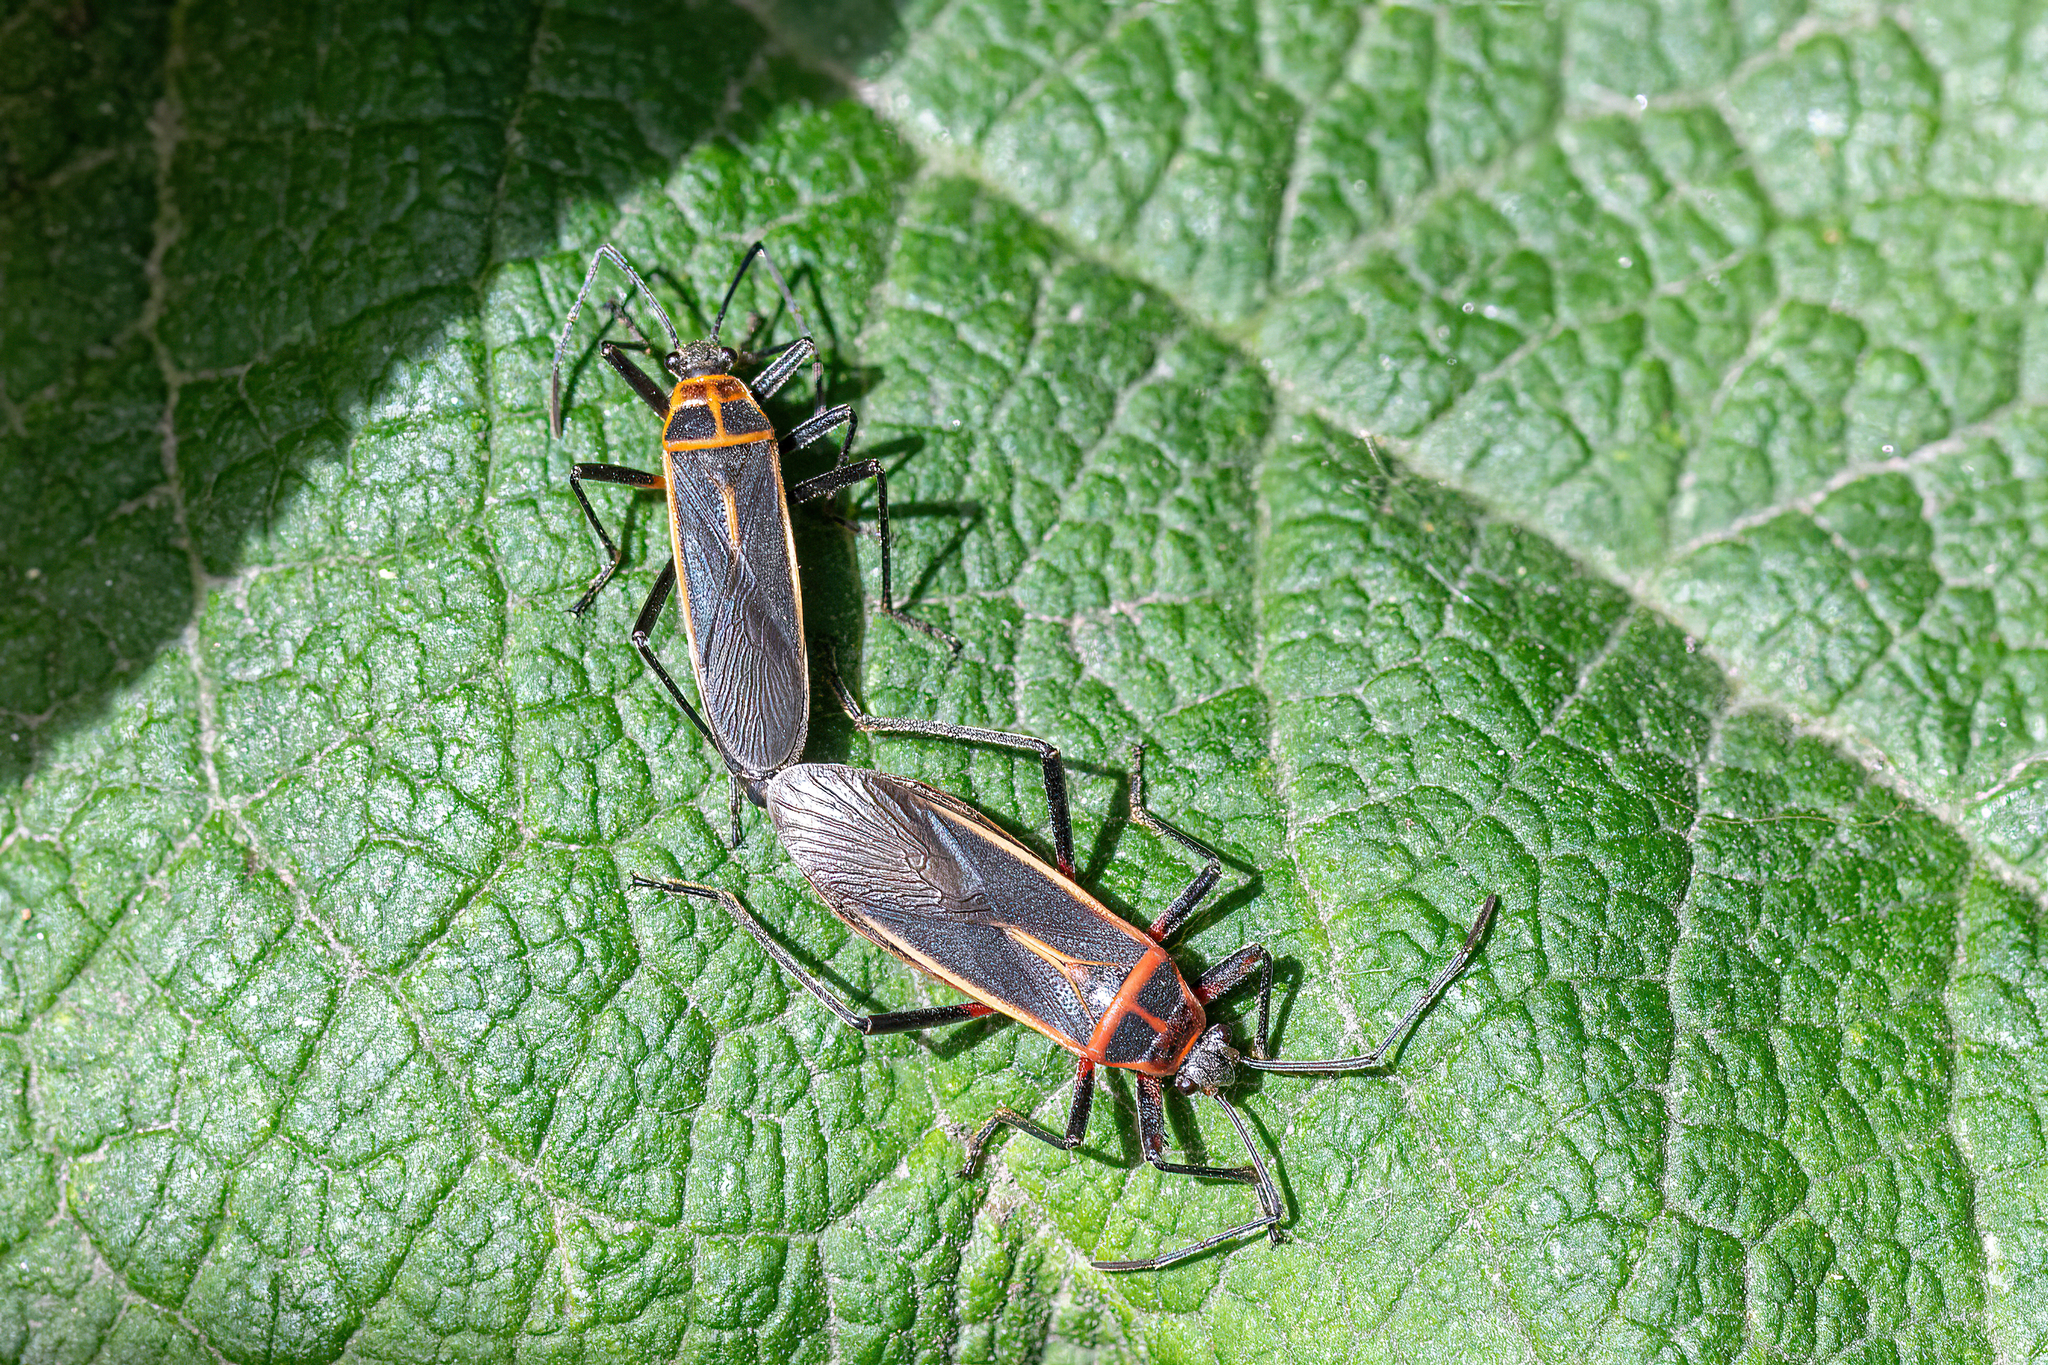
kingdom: Animalia
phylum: Arthropoda
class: Insecta
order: Hemiptera
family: Largidae
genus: Stenomacra
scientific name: Stenomacra marginella
